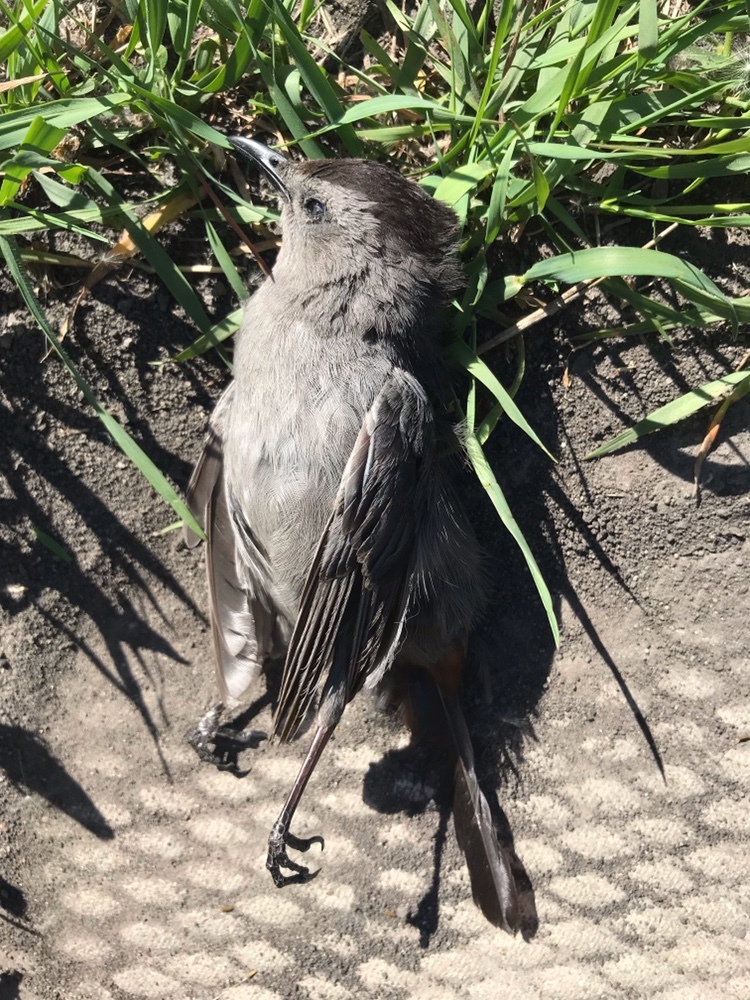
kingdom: Animalia
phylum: Chordata
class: Aves
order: Passeriformes
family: Mimidae
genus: Dumetella
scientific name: Dumetella carolinensis
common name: Gray catbird
